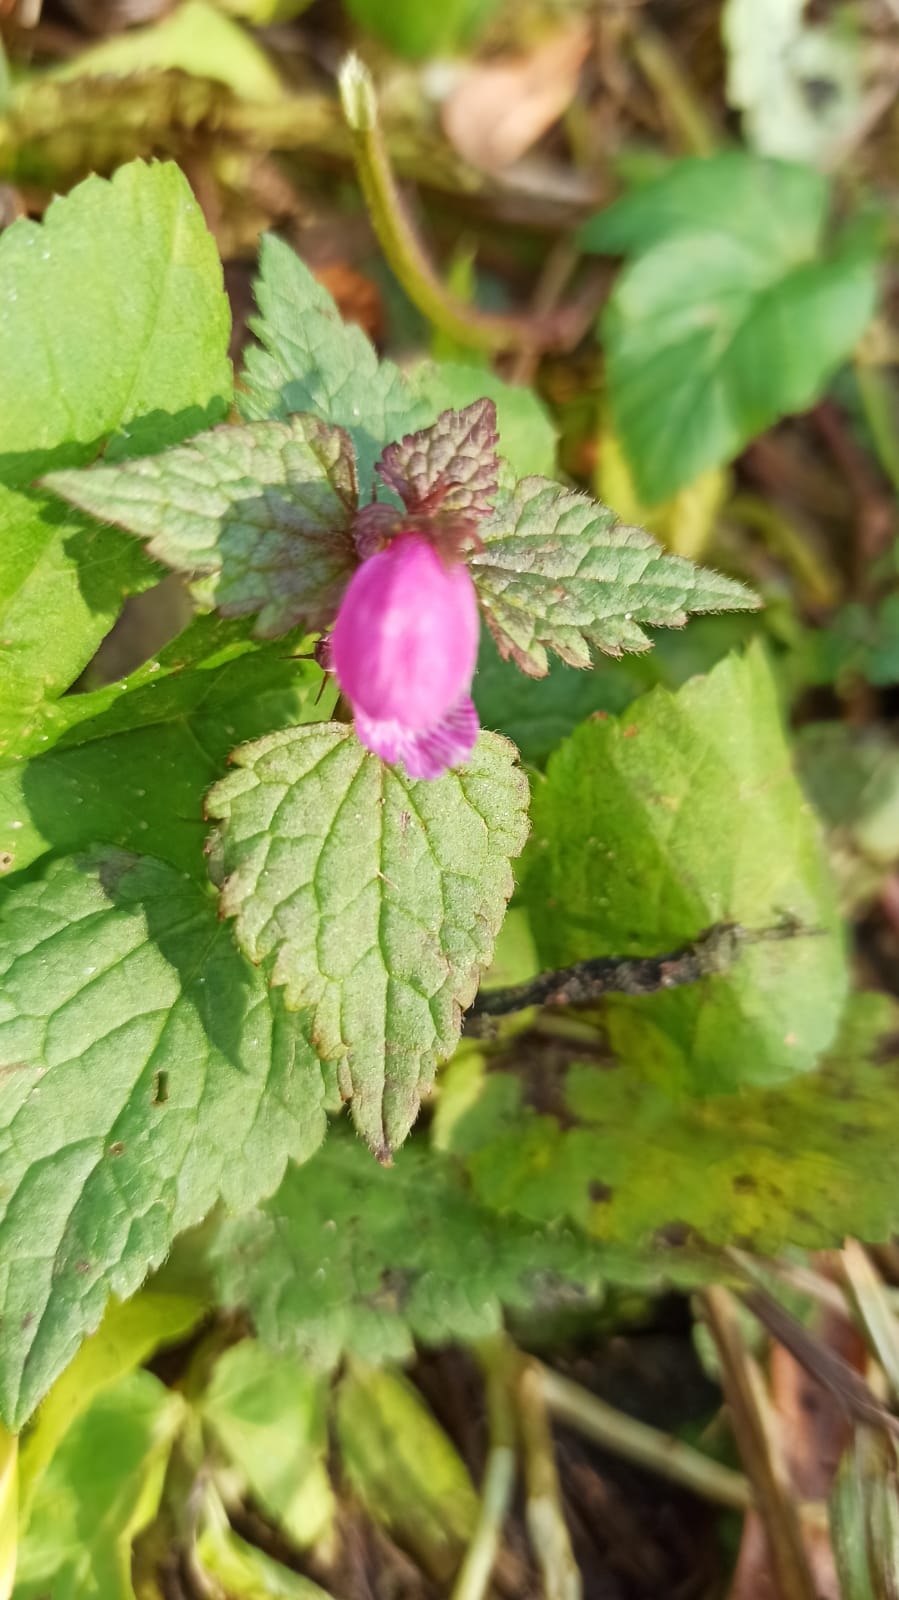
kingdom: Plantae
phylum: Tracheophyta
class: Magnoliopsida
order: Lamiales
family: Lamiaceae
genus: Lamium
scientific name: Lamium maculatum
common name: Spotted dead-nettle
